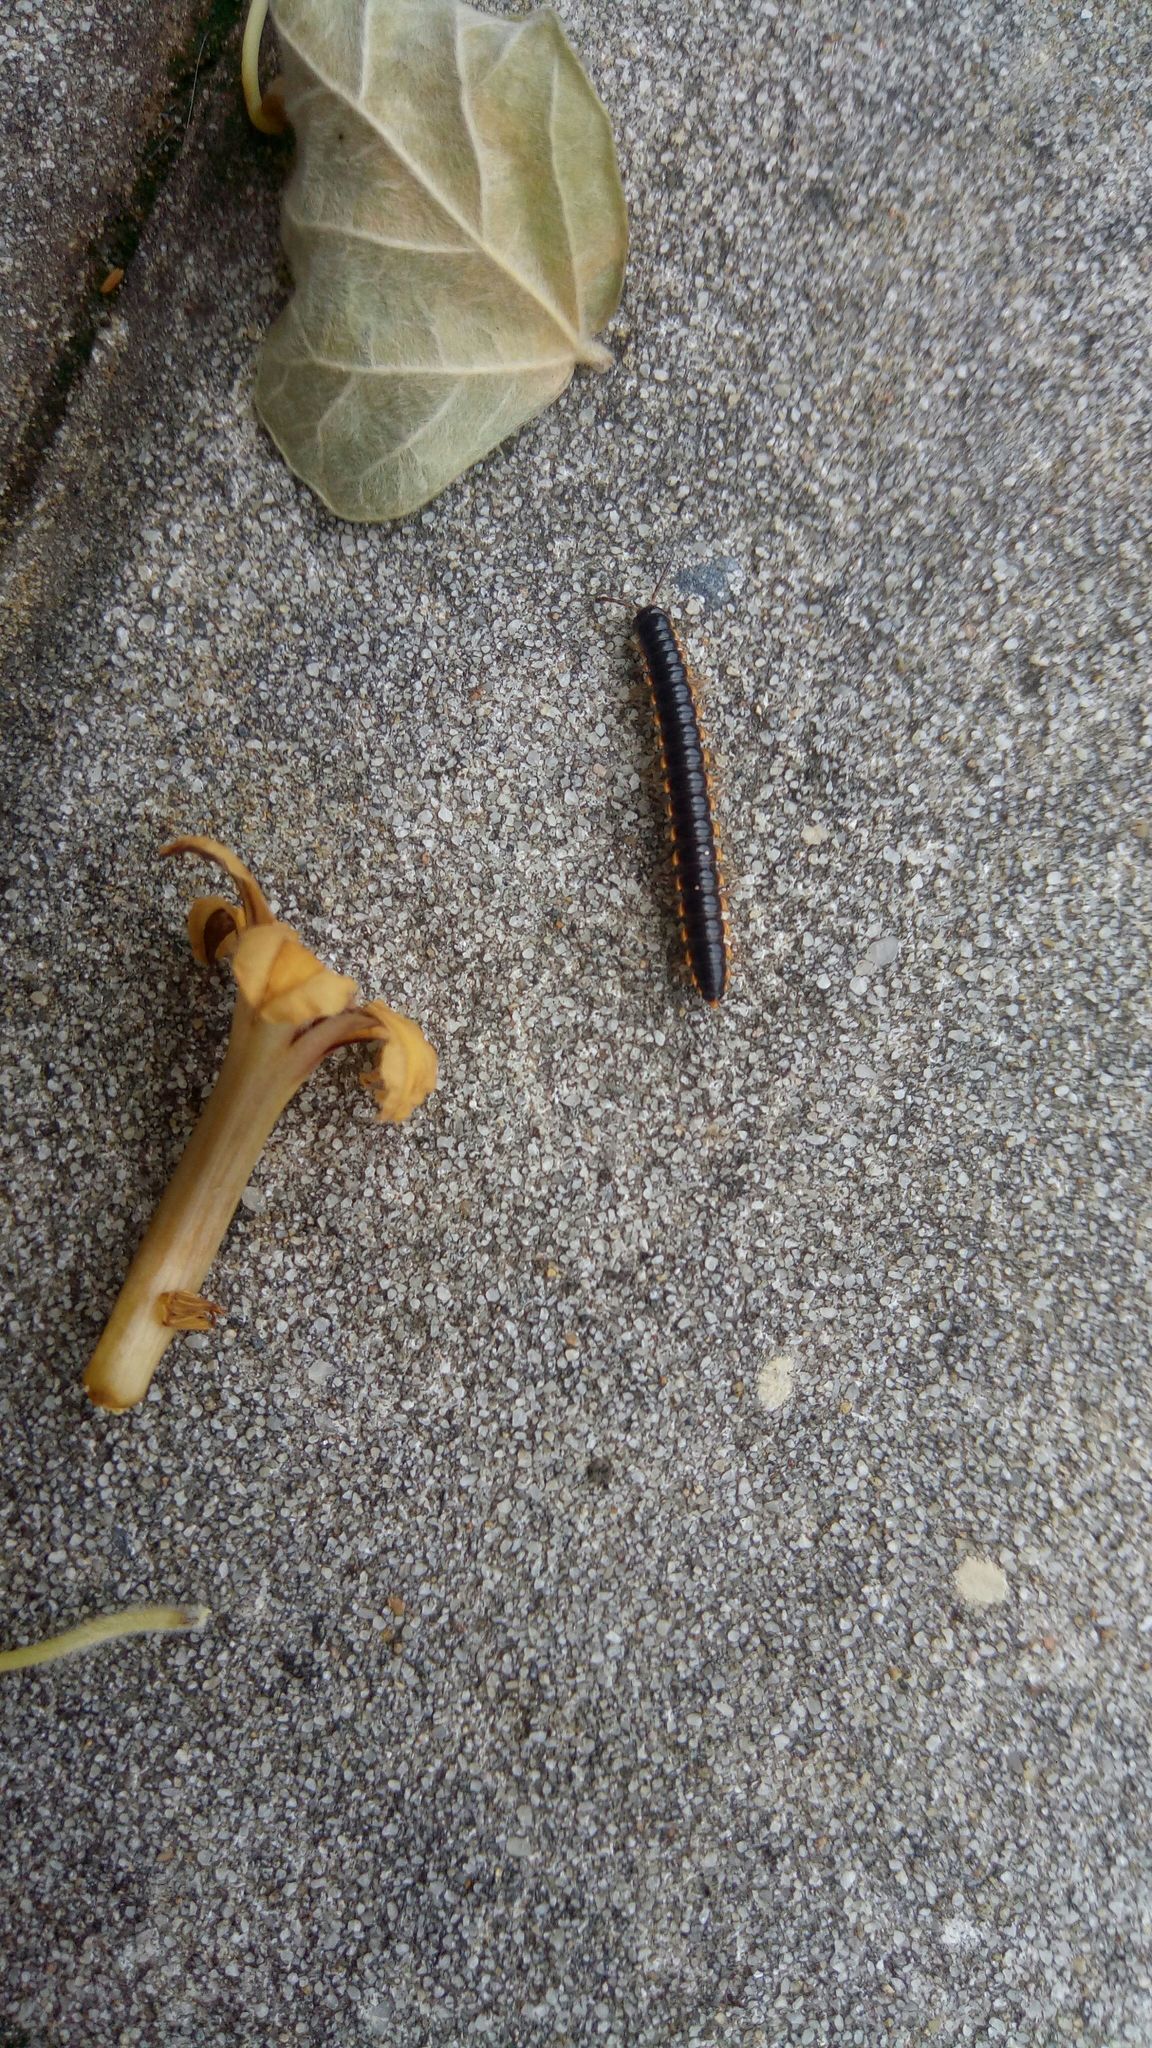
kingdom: Animalia
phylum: Arthropoda
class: Diplopoda
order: Polydesmida
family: Paradoxosomatidae
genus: Orthomorpha
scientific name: Orthomorpha coarctata
